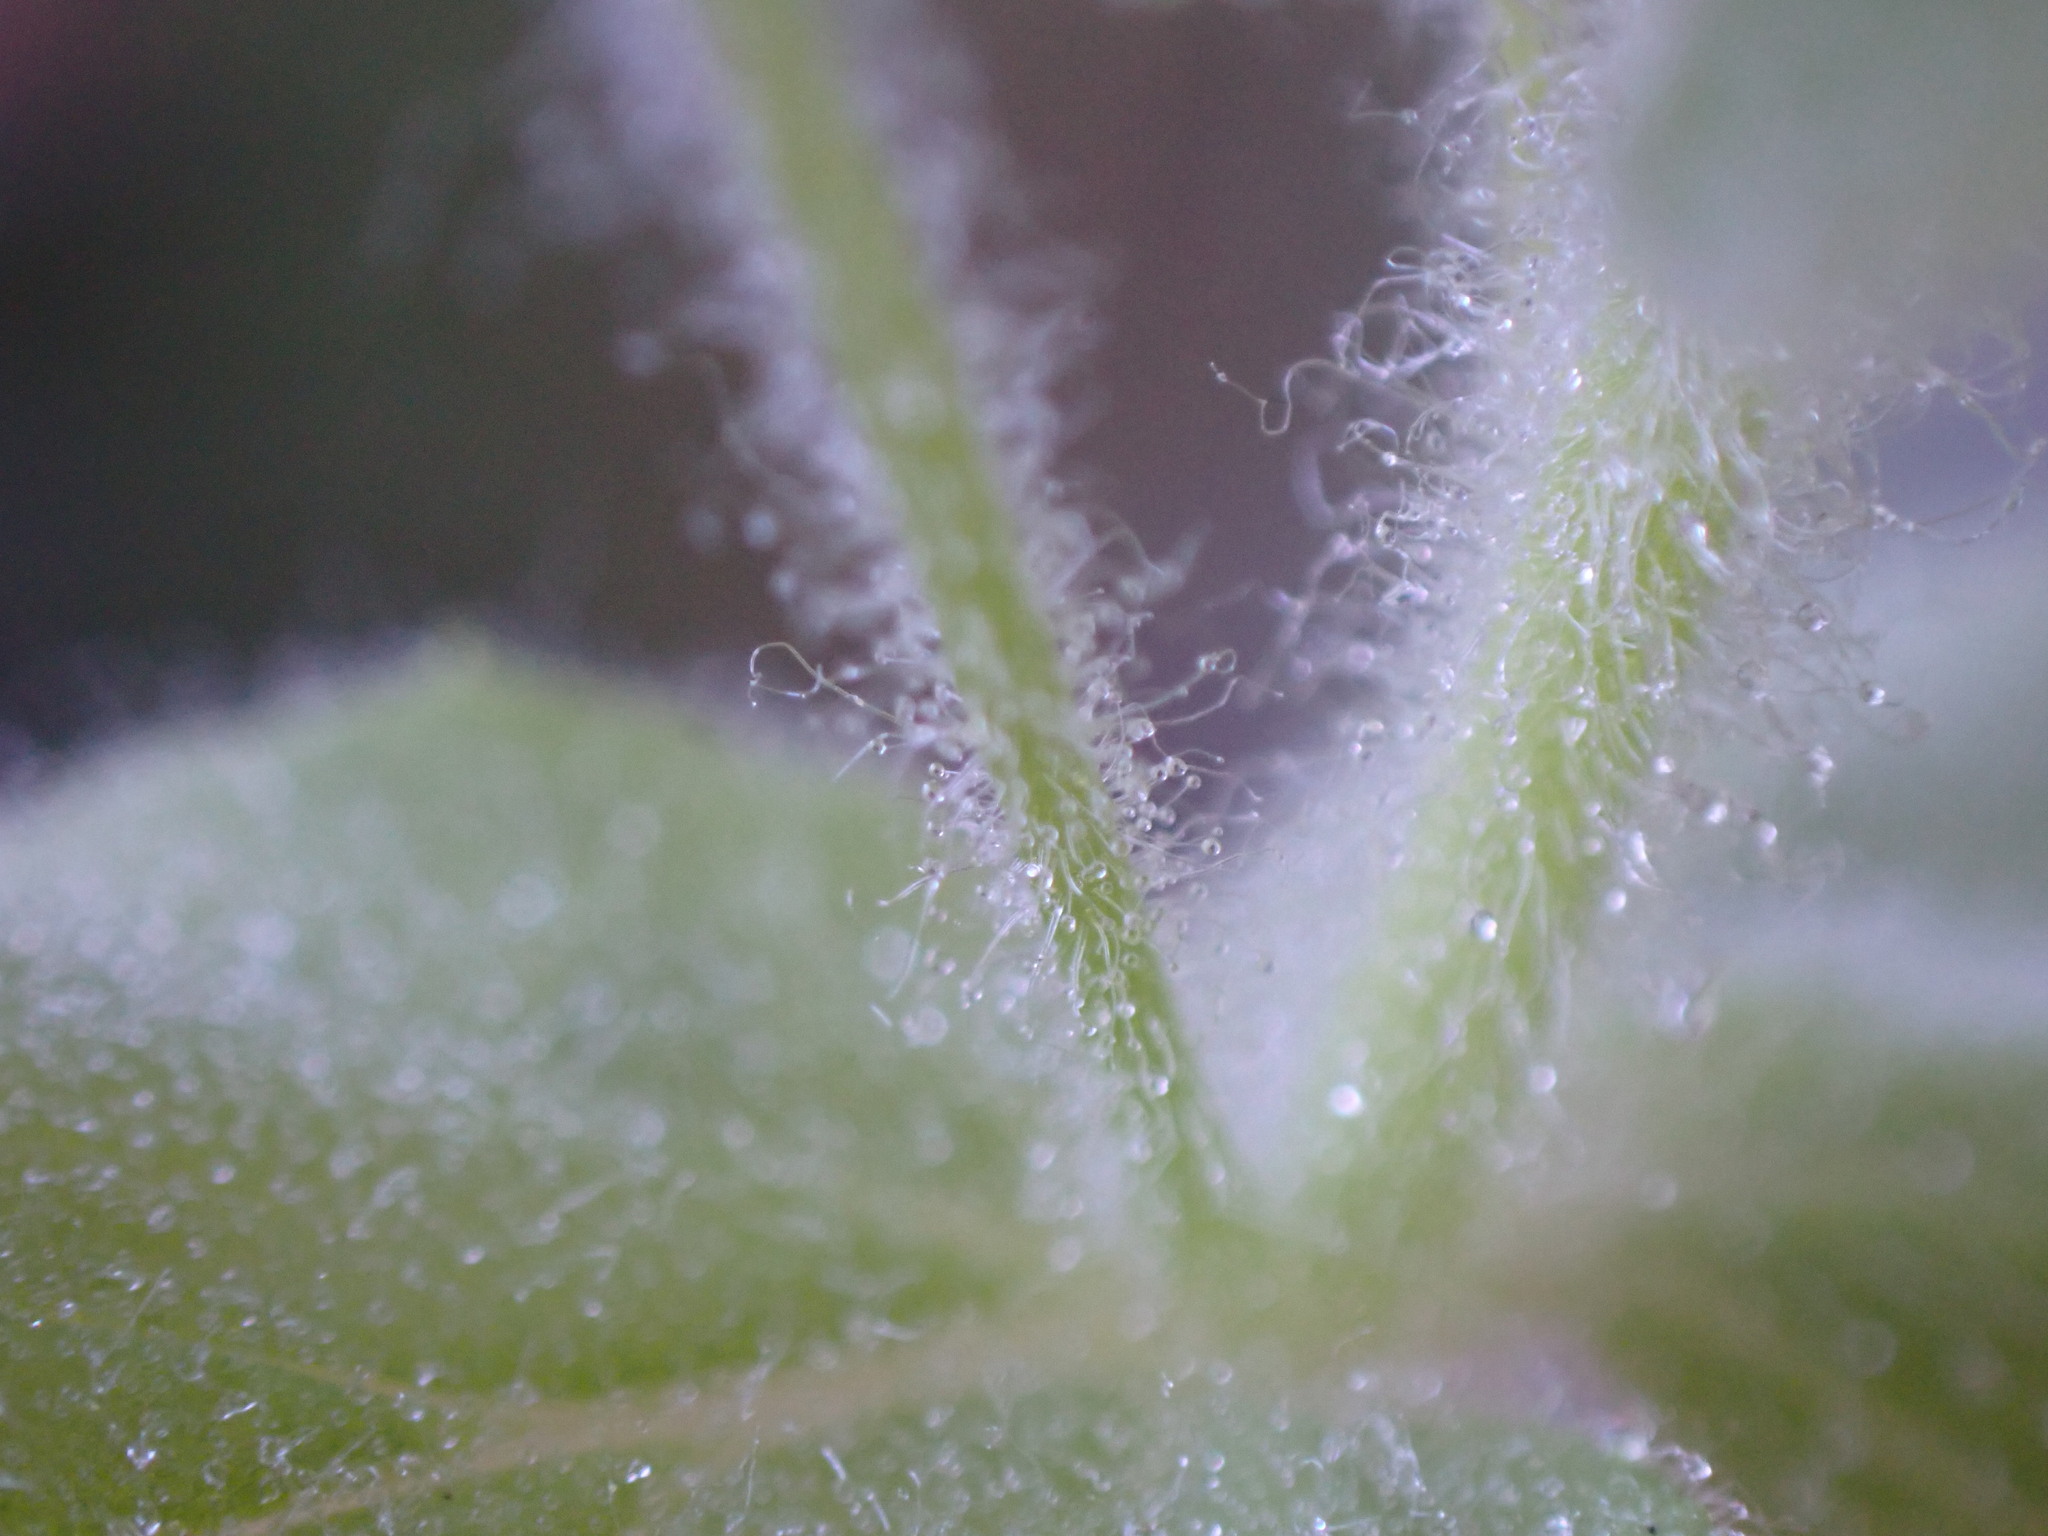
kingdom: Plantae
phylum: Tracheophyta
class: Magnoliopsida
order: Lamiales
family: Phrymaceae
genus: Erythranthe
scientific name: Erythranthe ptilota
